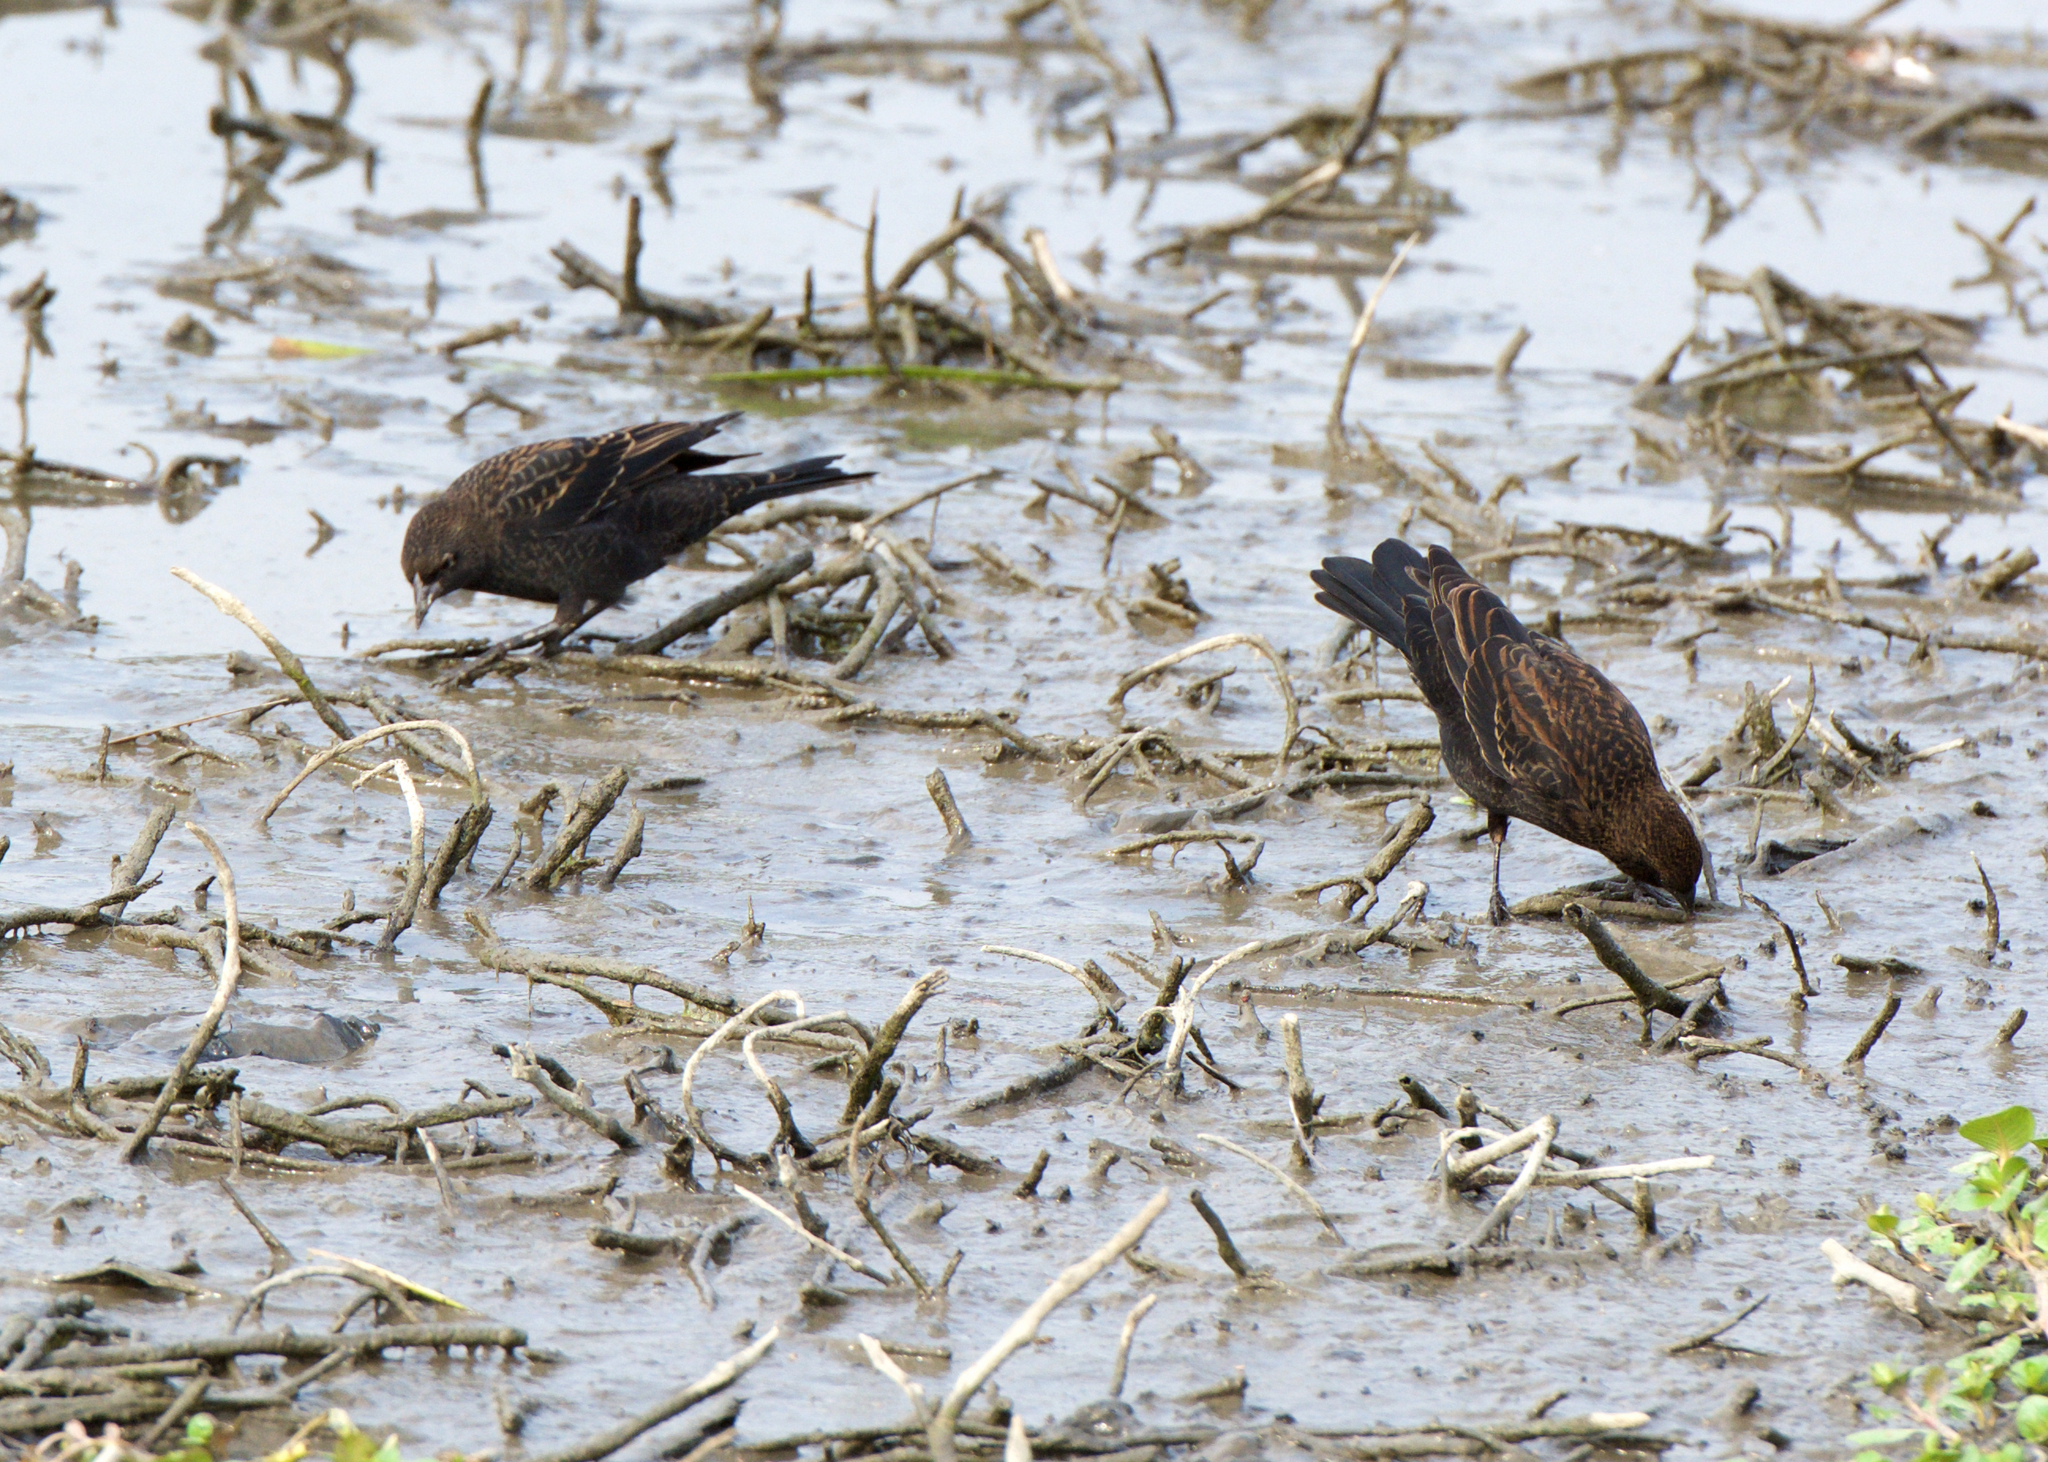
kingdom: Animalia
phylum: Chordata
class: Aves
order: Passeriformes
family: Icteridae
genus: Agelaius
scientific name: Agelaius phoeniceus
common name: Red-winged blackbird
